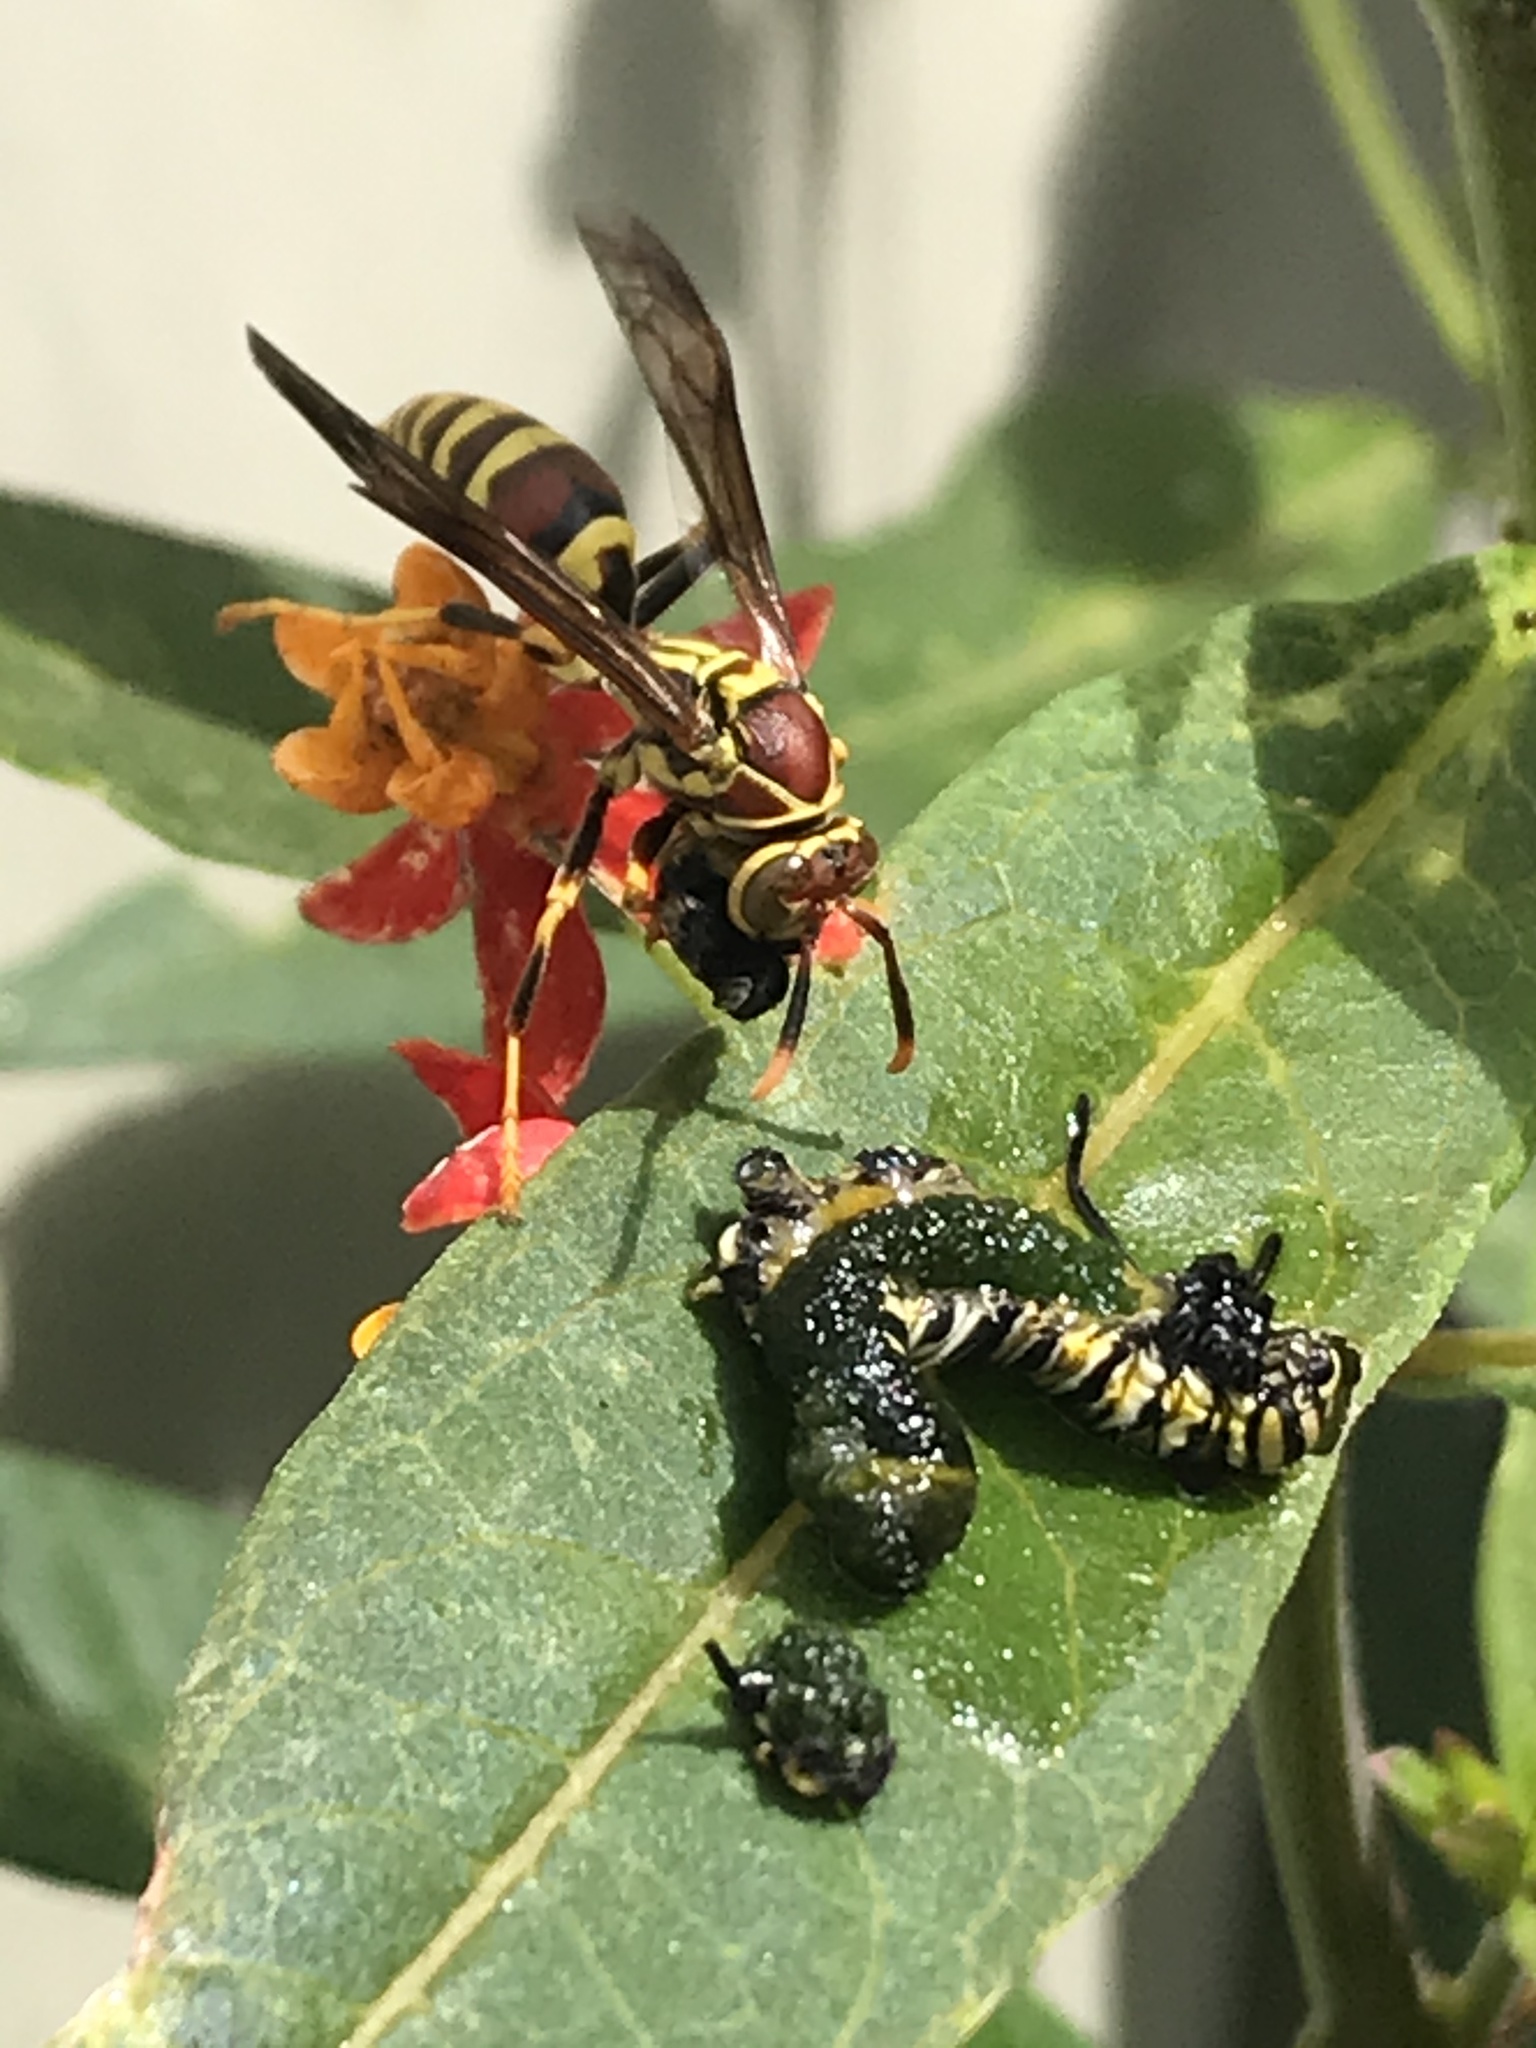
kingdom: Animalia
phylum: Arthropoda
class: Insecta
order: Hymenoptera
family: Eumenidae
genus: Polistes
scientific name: Polistes exclamans
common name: Paper wasp
